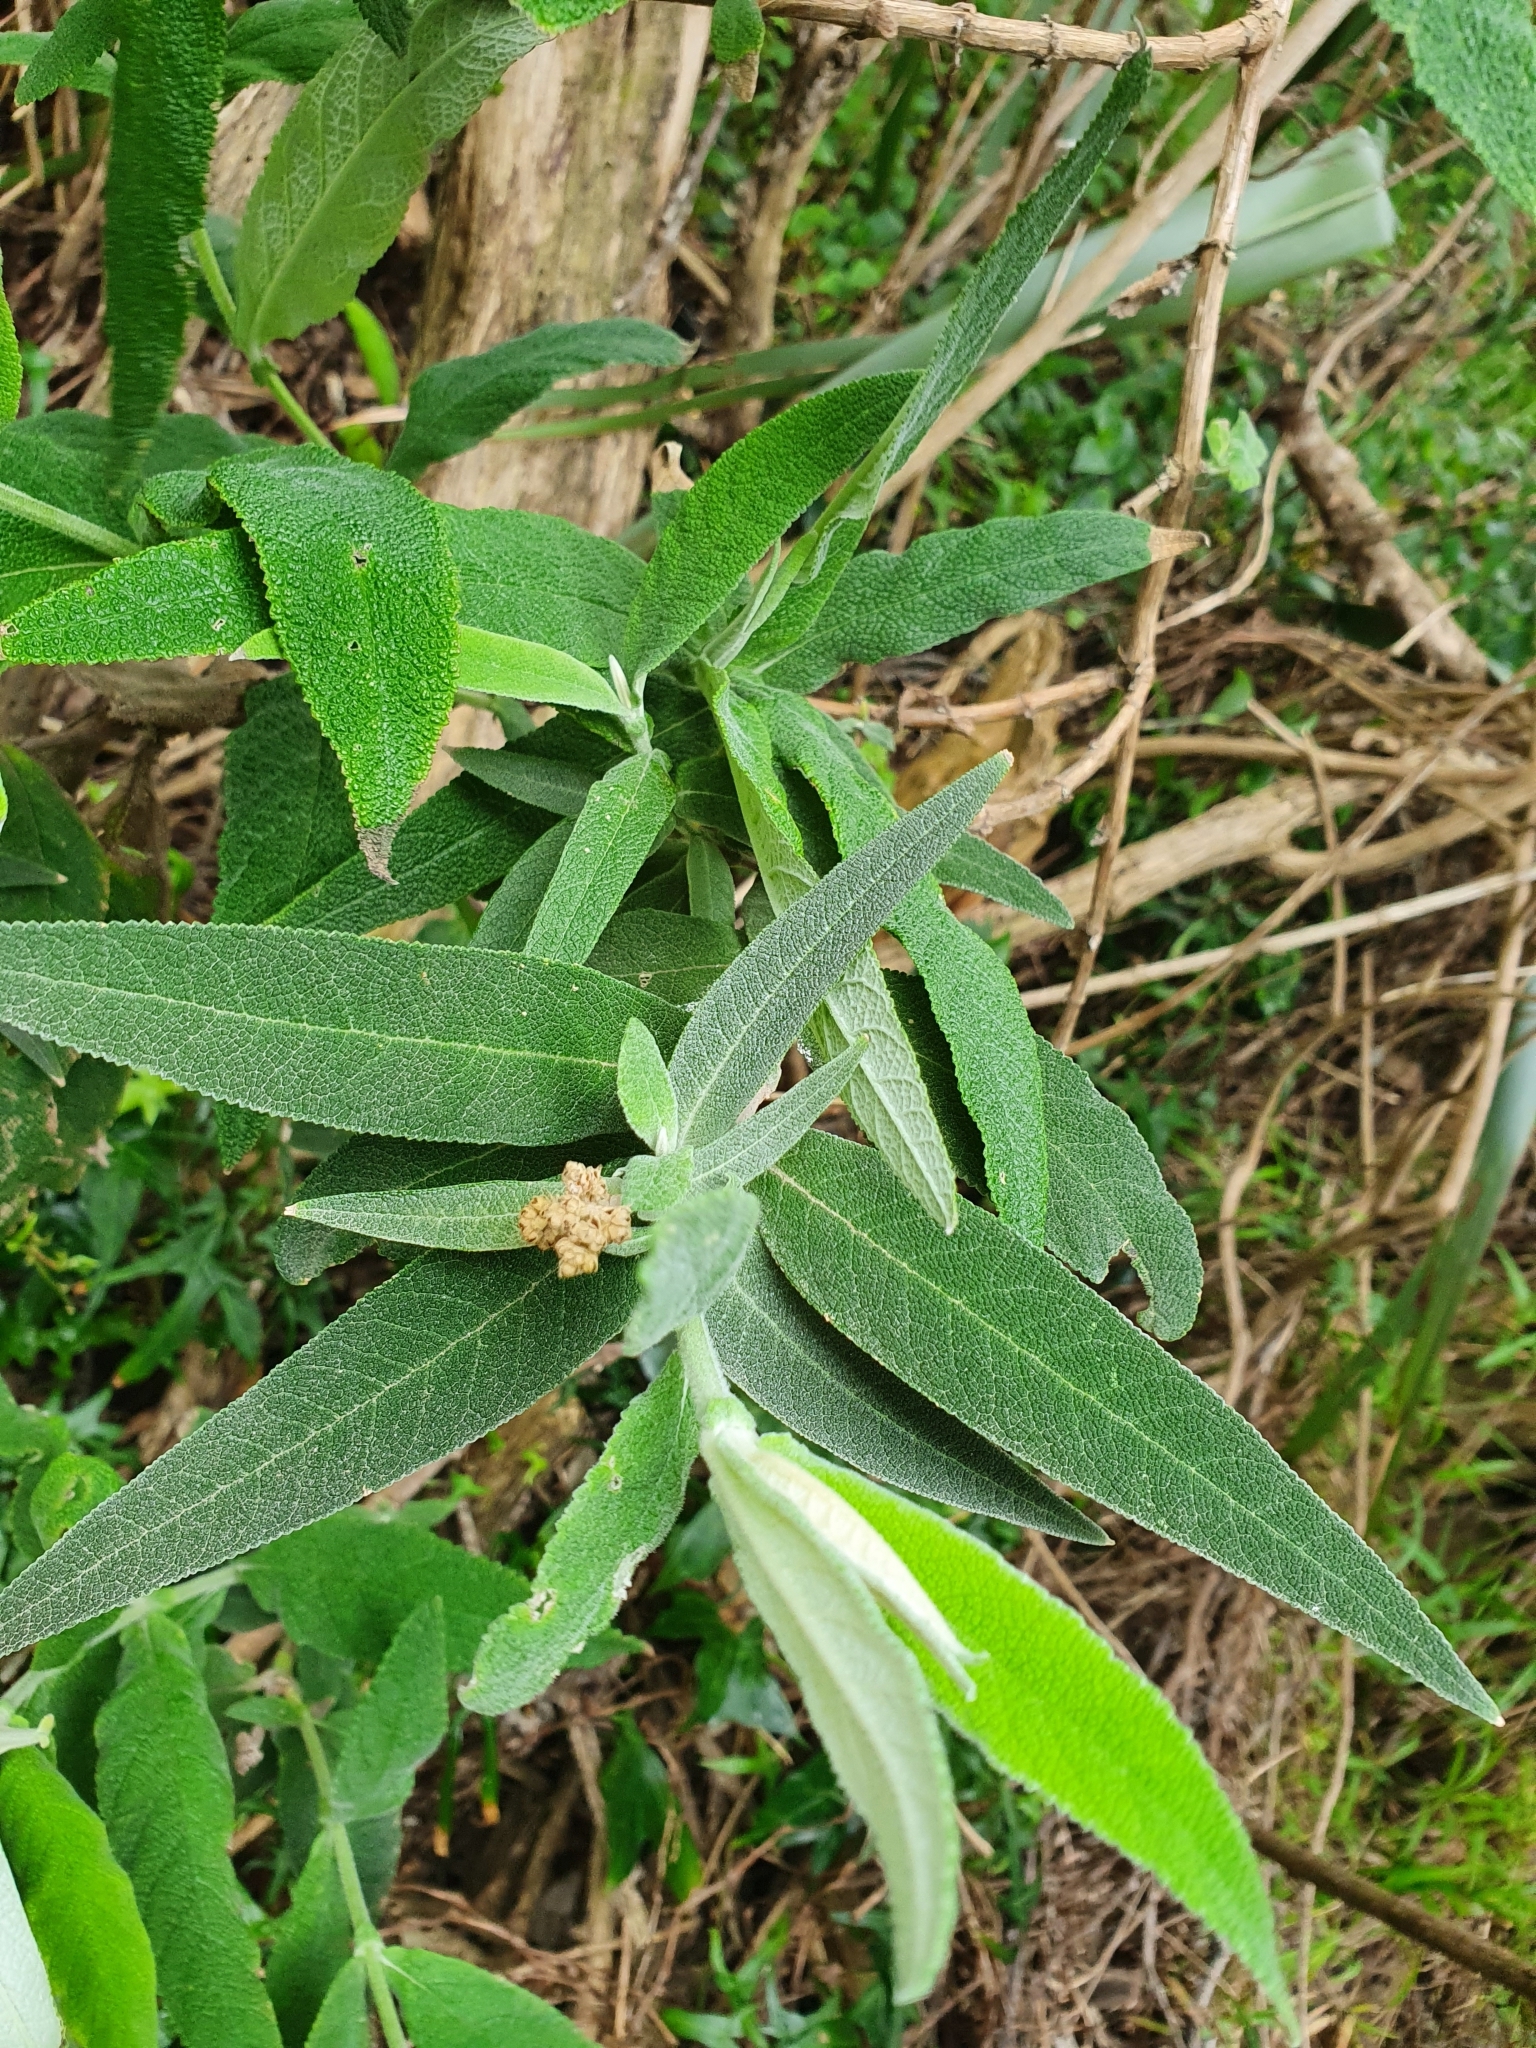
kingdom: Plantae
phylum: Tracheophyta
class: Magnoliopsida
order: Lamiales
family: Scrophulariaceae
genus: Buddleja
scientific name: Buddleja salviifolia
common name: Sagewood
